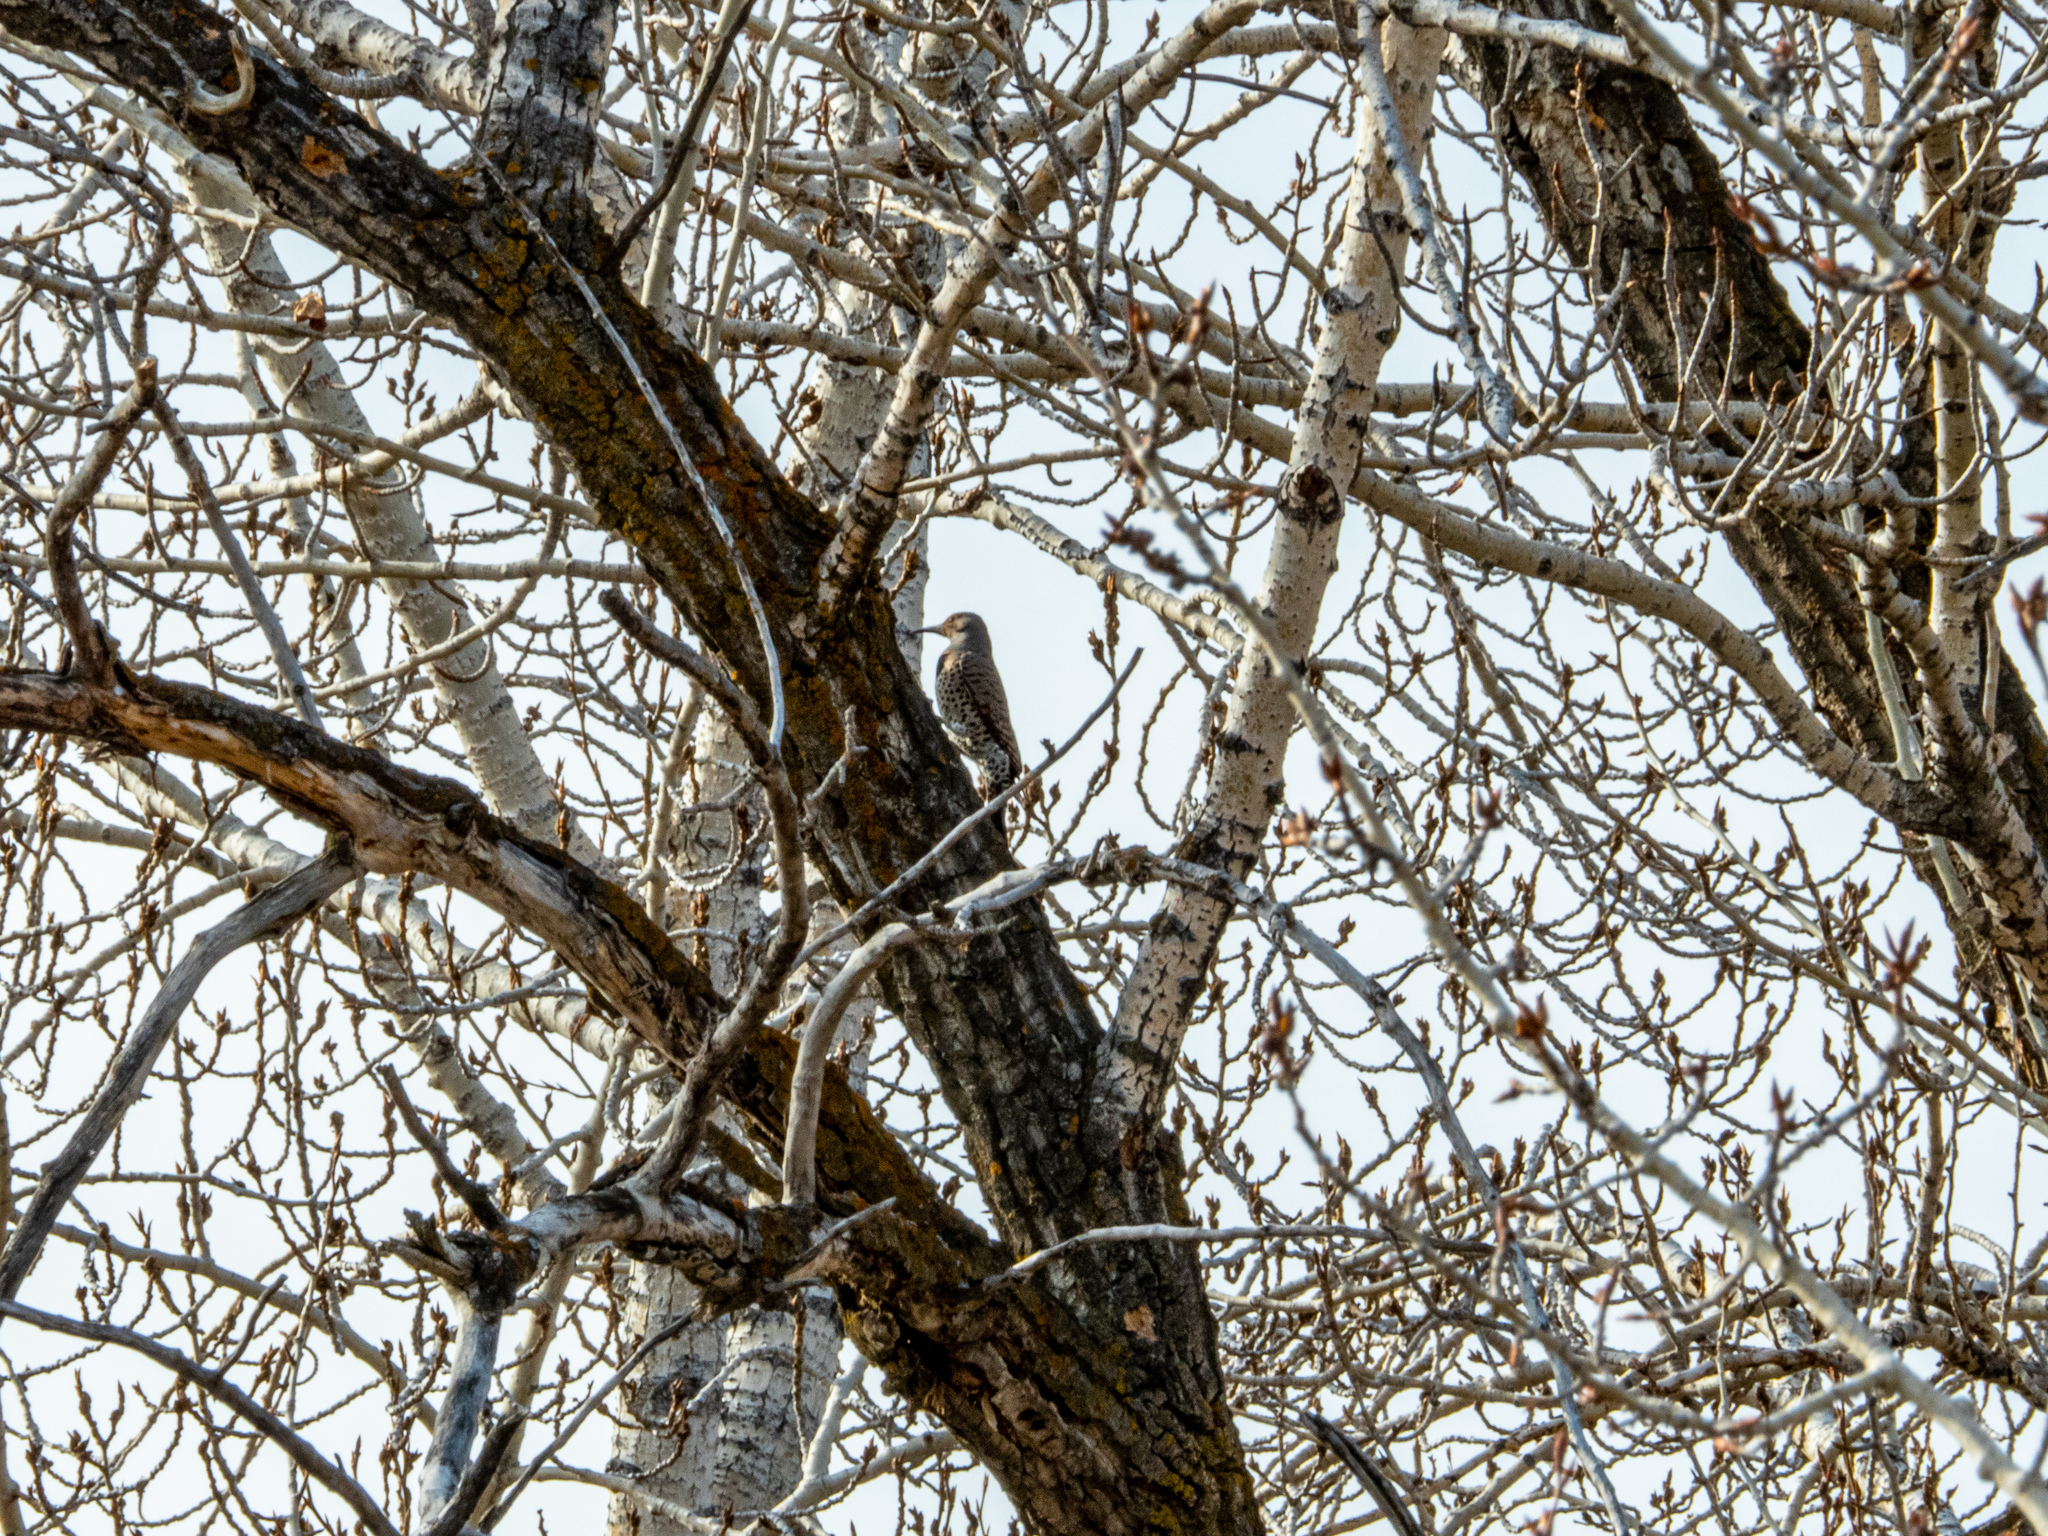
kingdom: Animalia
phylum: Chordata
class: Aves
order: Piciformes
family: Picidae
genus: Colaptes
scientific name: Colaptes auratus
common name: Northern flicker
